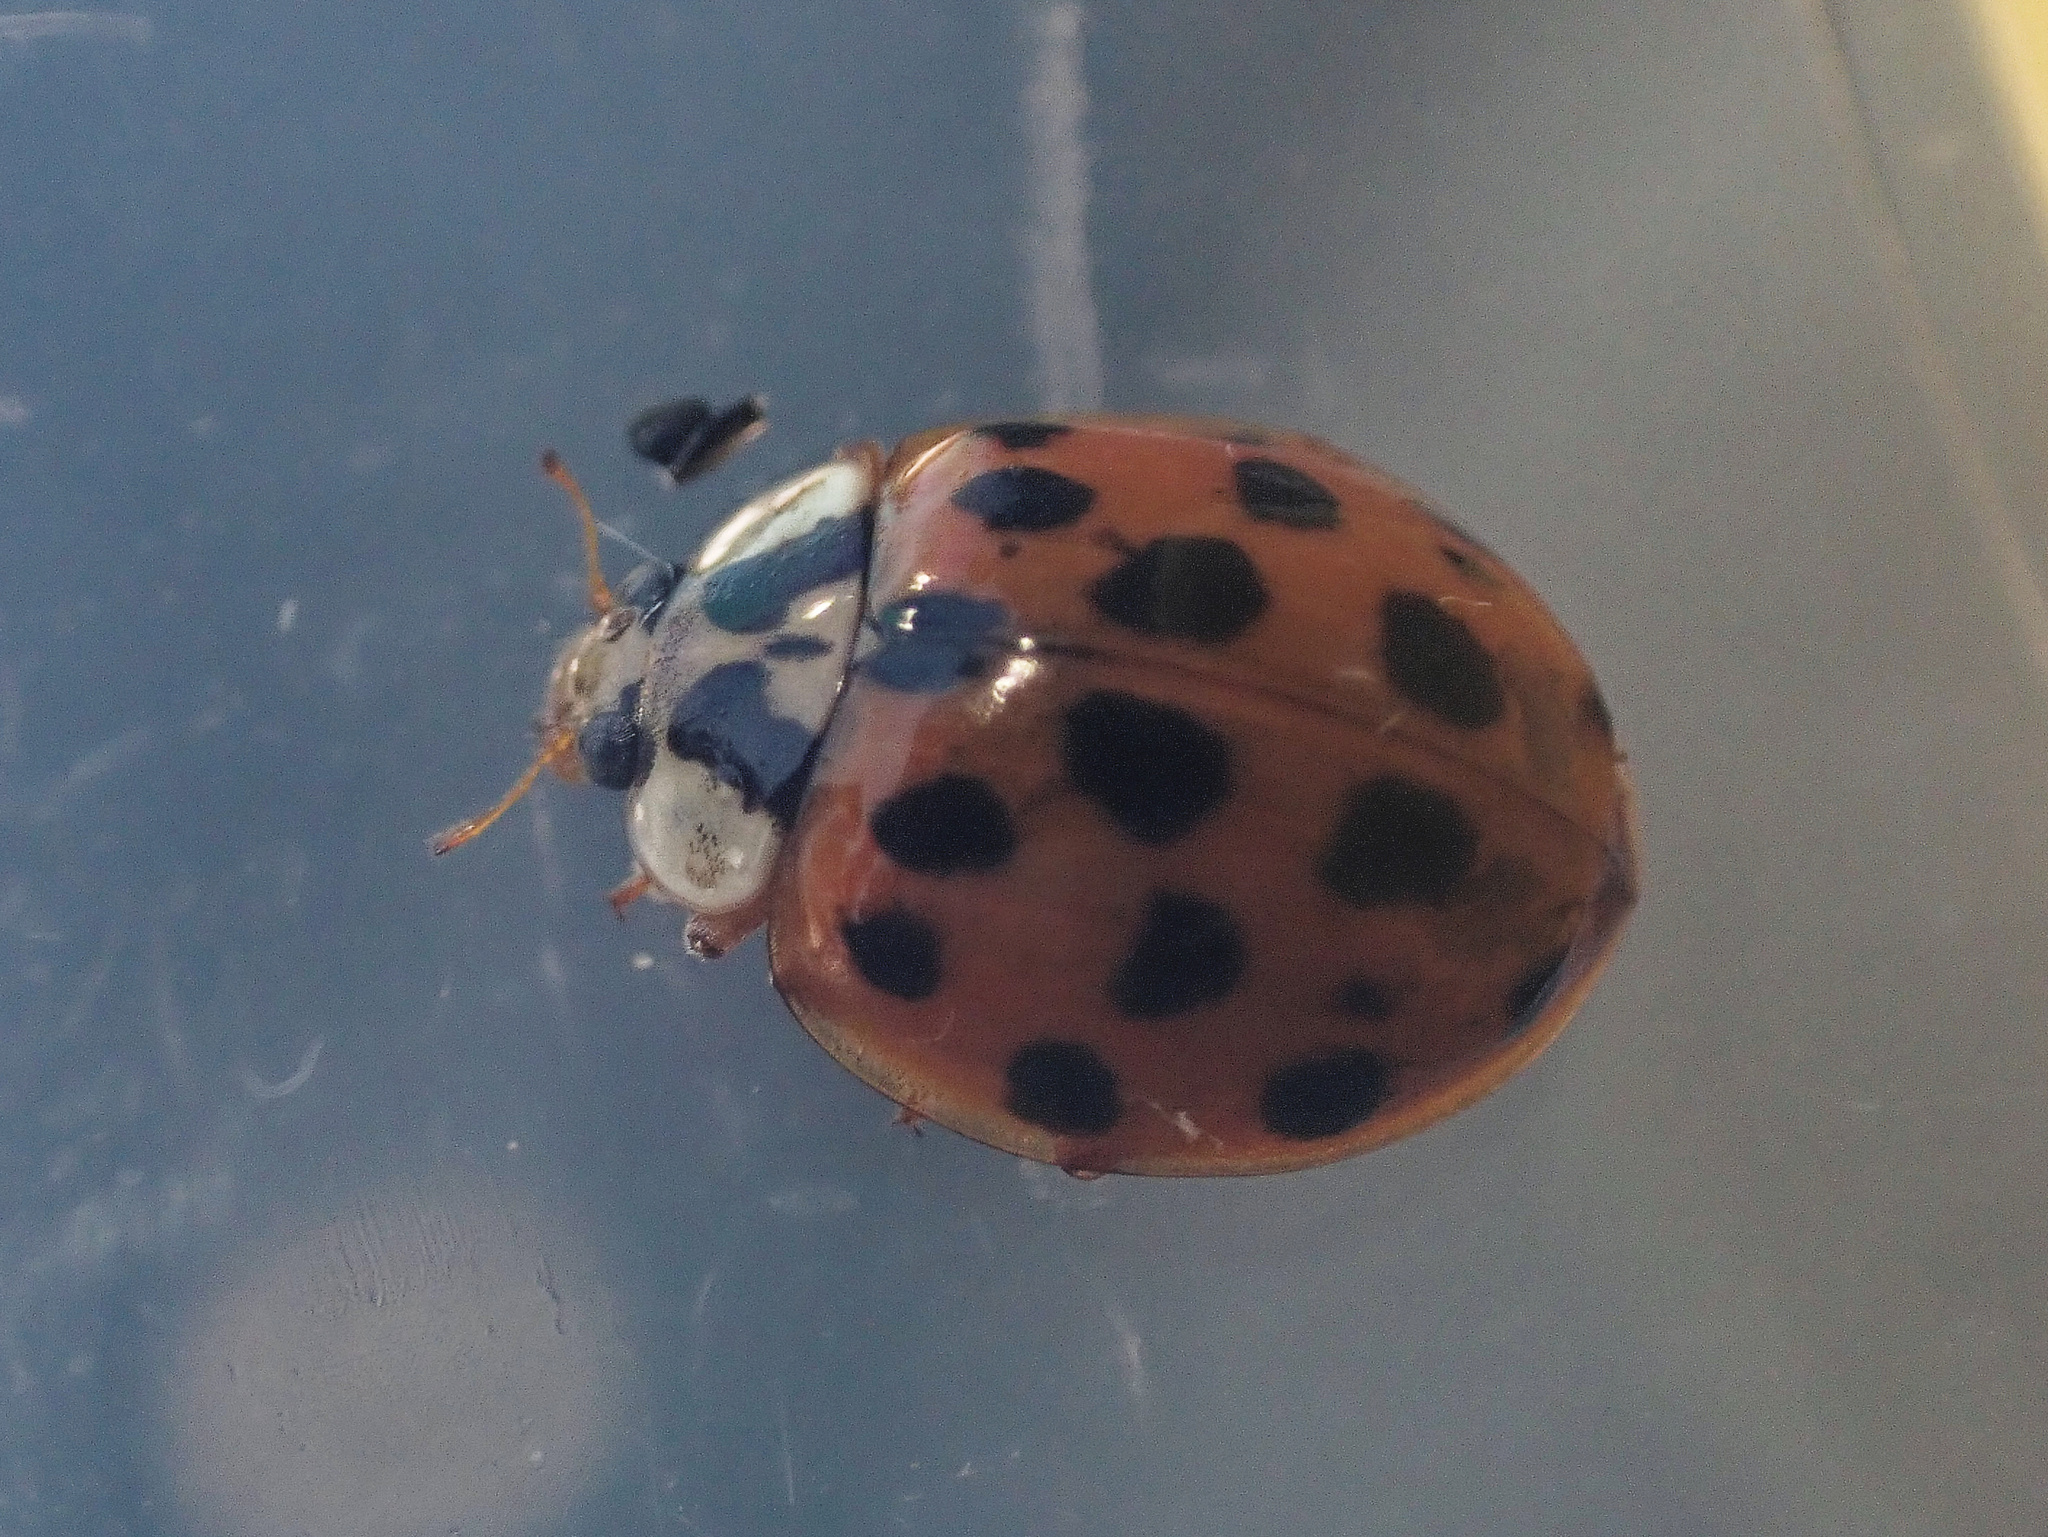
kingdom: Animalia
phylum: Arthropoda
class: Insecta
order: Coleoptera
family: Coccinellidae
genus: Harmonia
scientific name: Harmonia axyridis
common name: Harlequin ladybird
